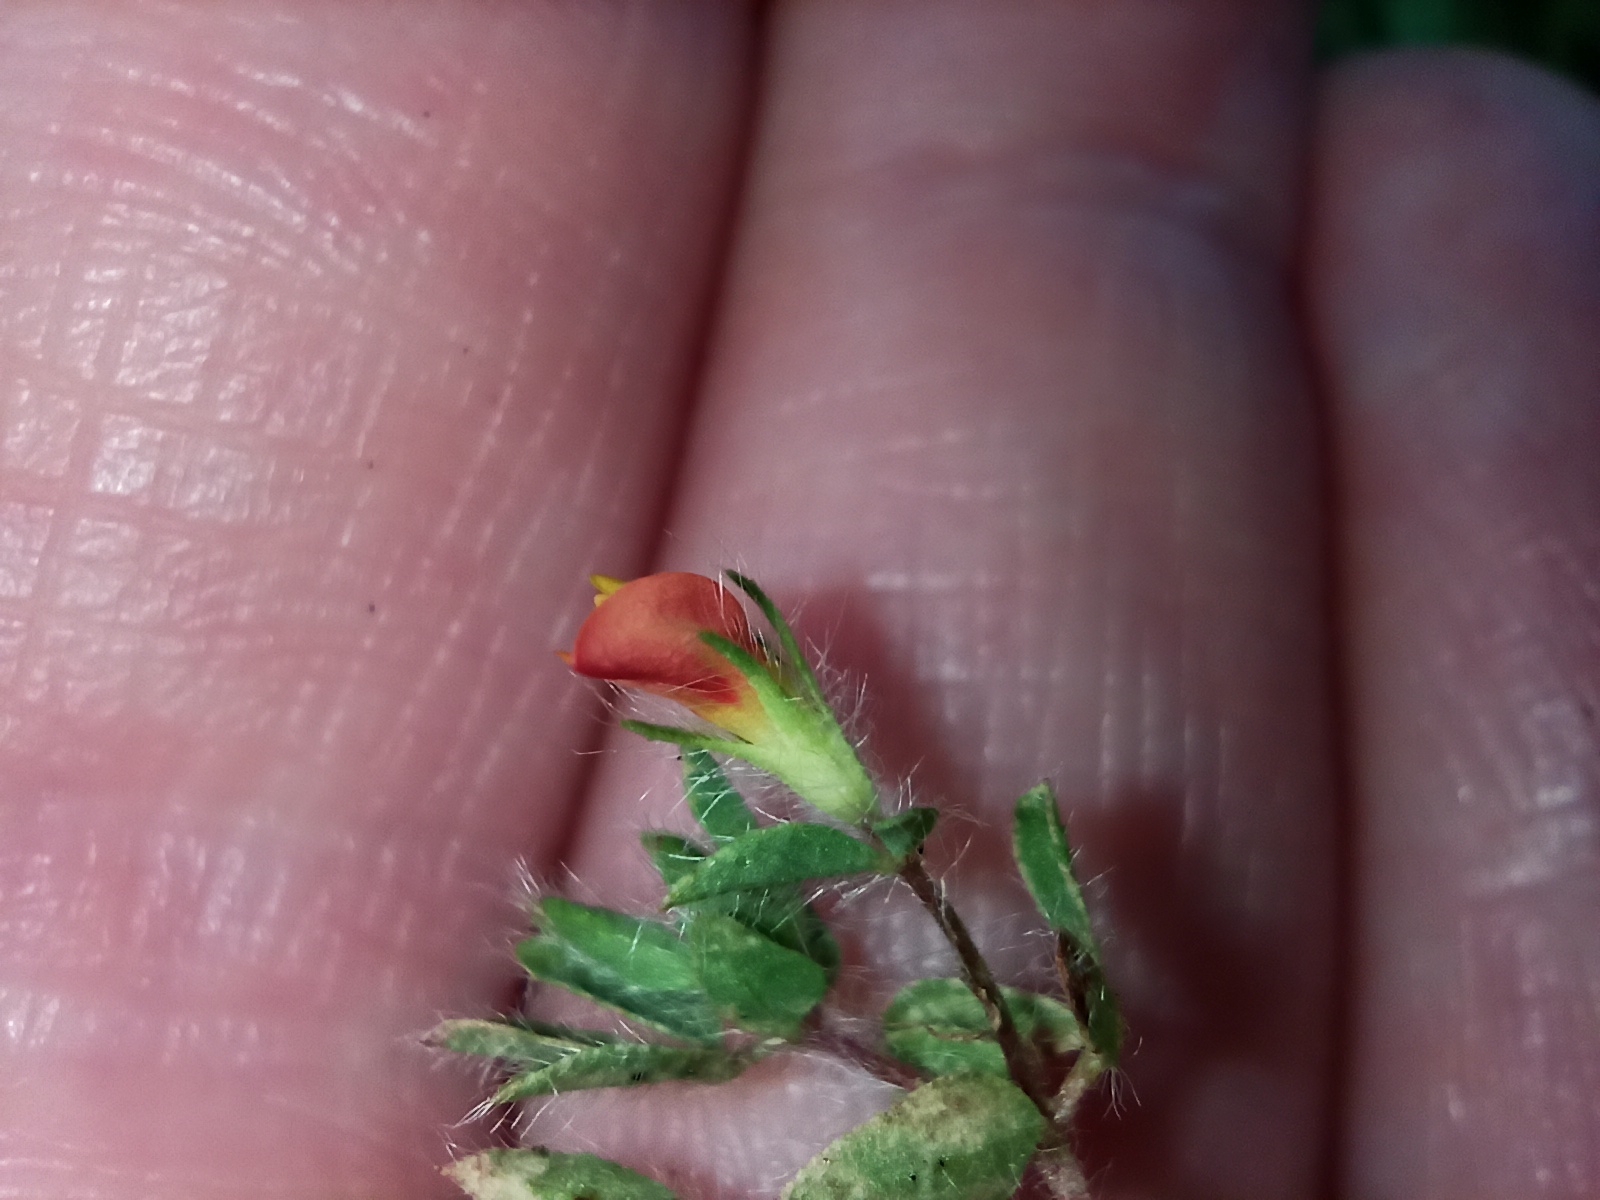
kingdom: Plantae
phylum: Tracheophyta
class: Magnoliopsida
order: Fabales
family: Fabaceae
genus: Lotus
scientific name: Lotus subbiflorus
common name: Hairy bird's-foot trefoil
